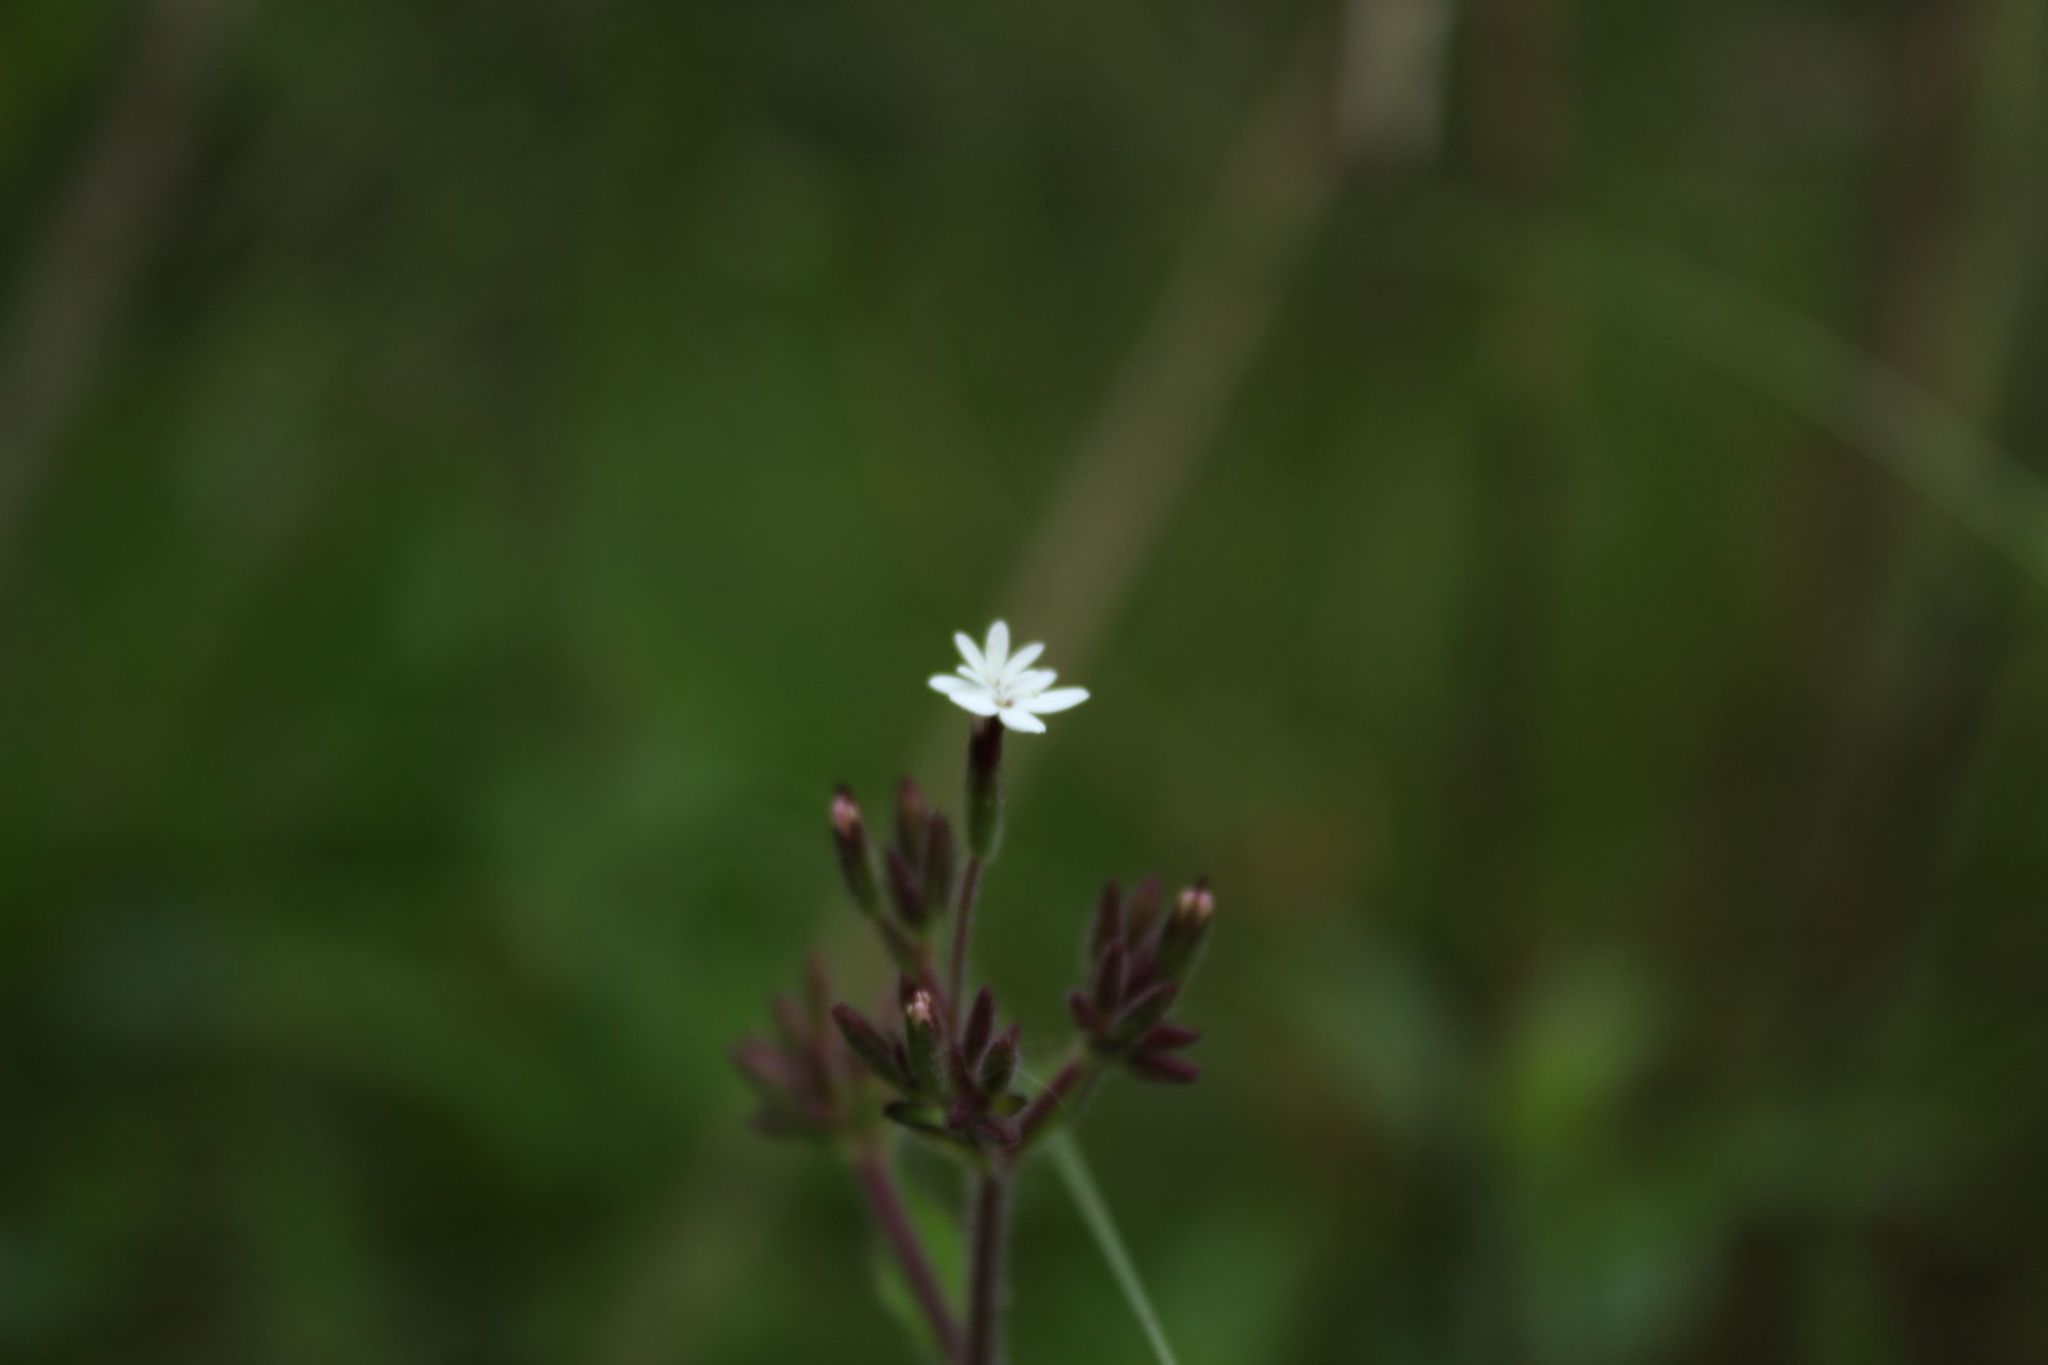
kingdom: Plantae
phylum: Tracheophyta
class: Magnoliopsida
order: Asterales
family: Asteraceae
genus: Stevia
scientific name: Stevia elatior
